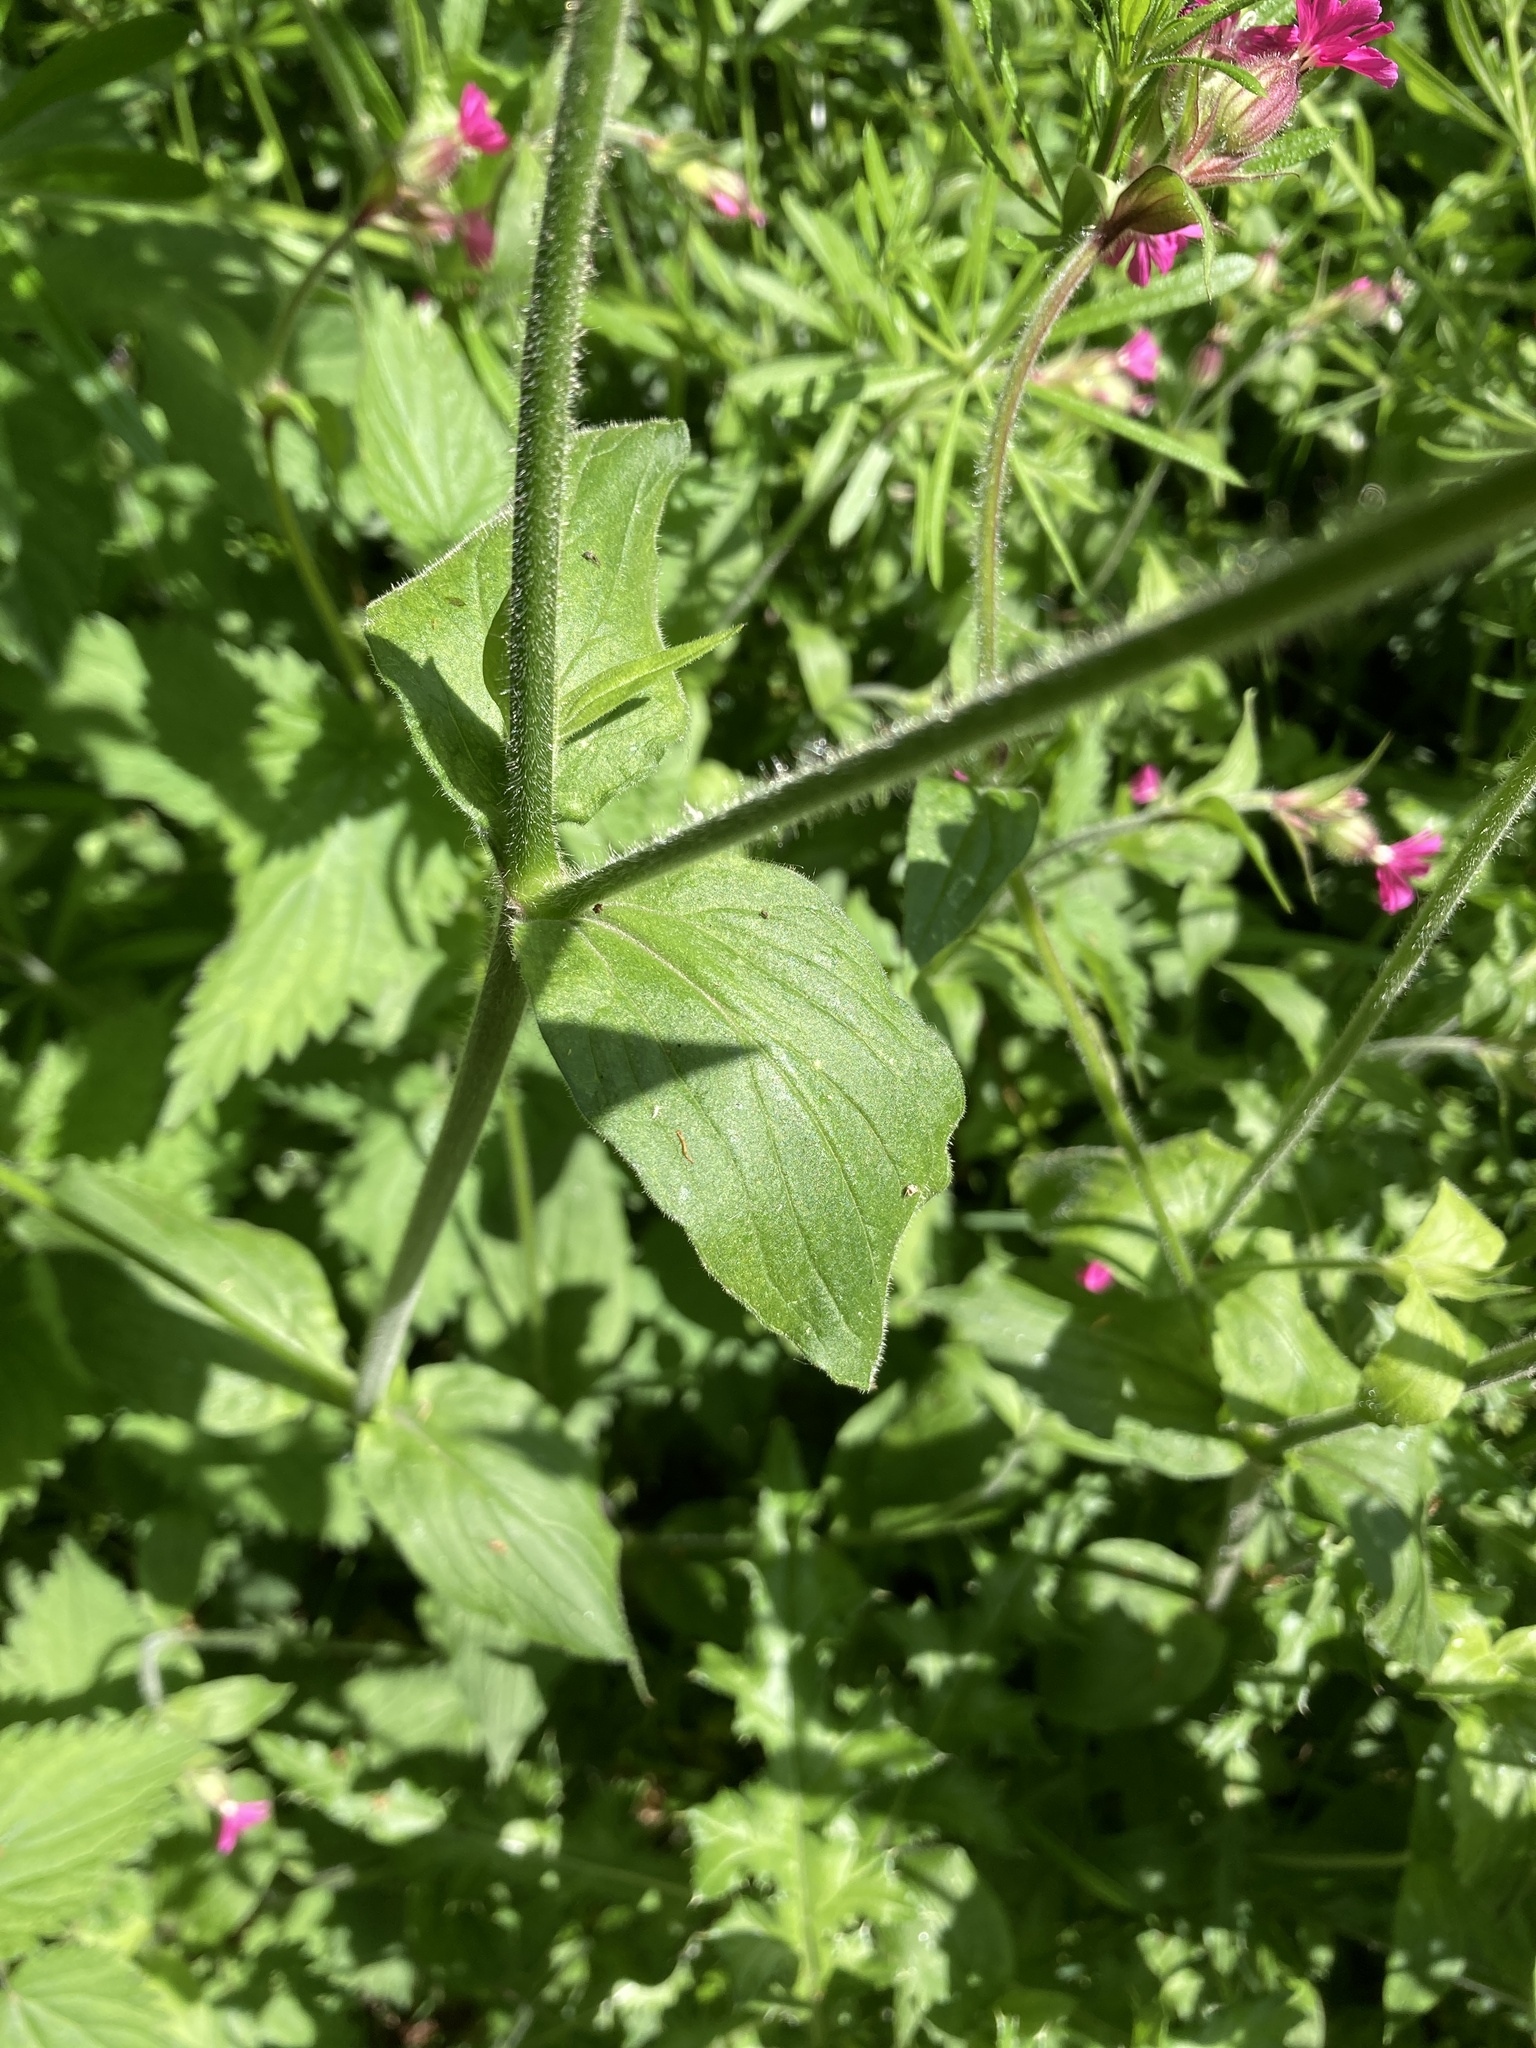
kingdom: Plantae
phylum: Tracheophyta
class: Magnoliopsida
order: Caryophyllales
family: Caryophyllaceae
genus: Silene
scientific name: Silene dioica
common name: Red campion
